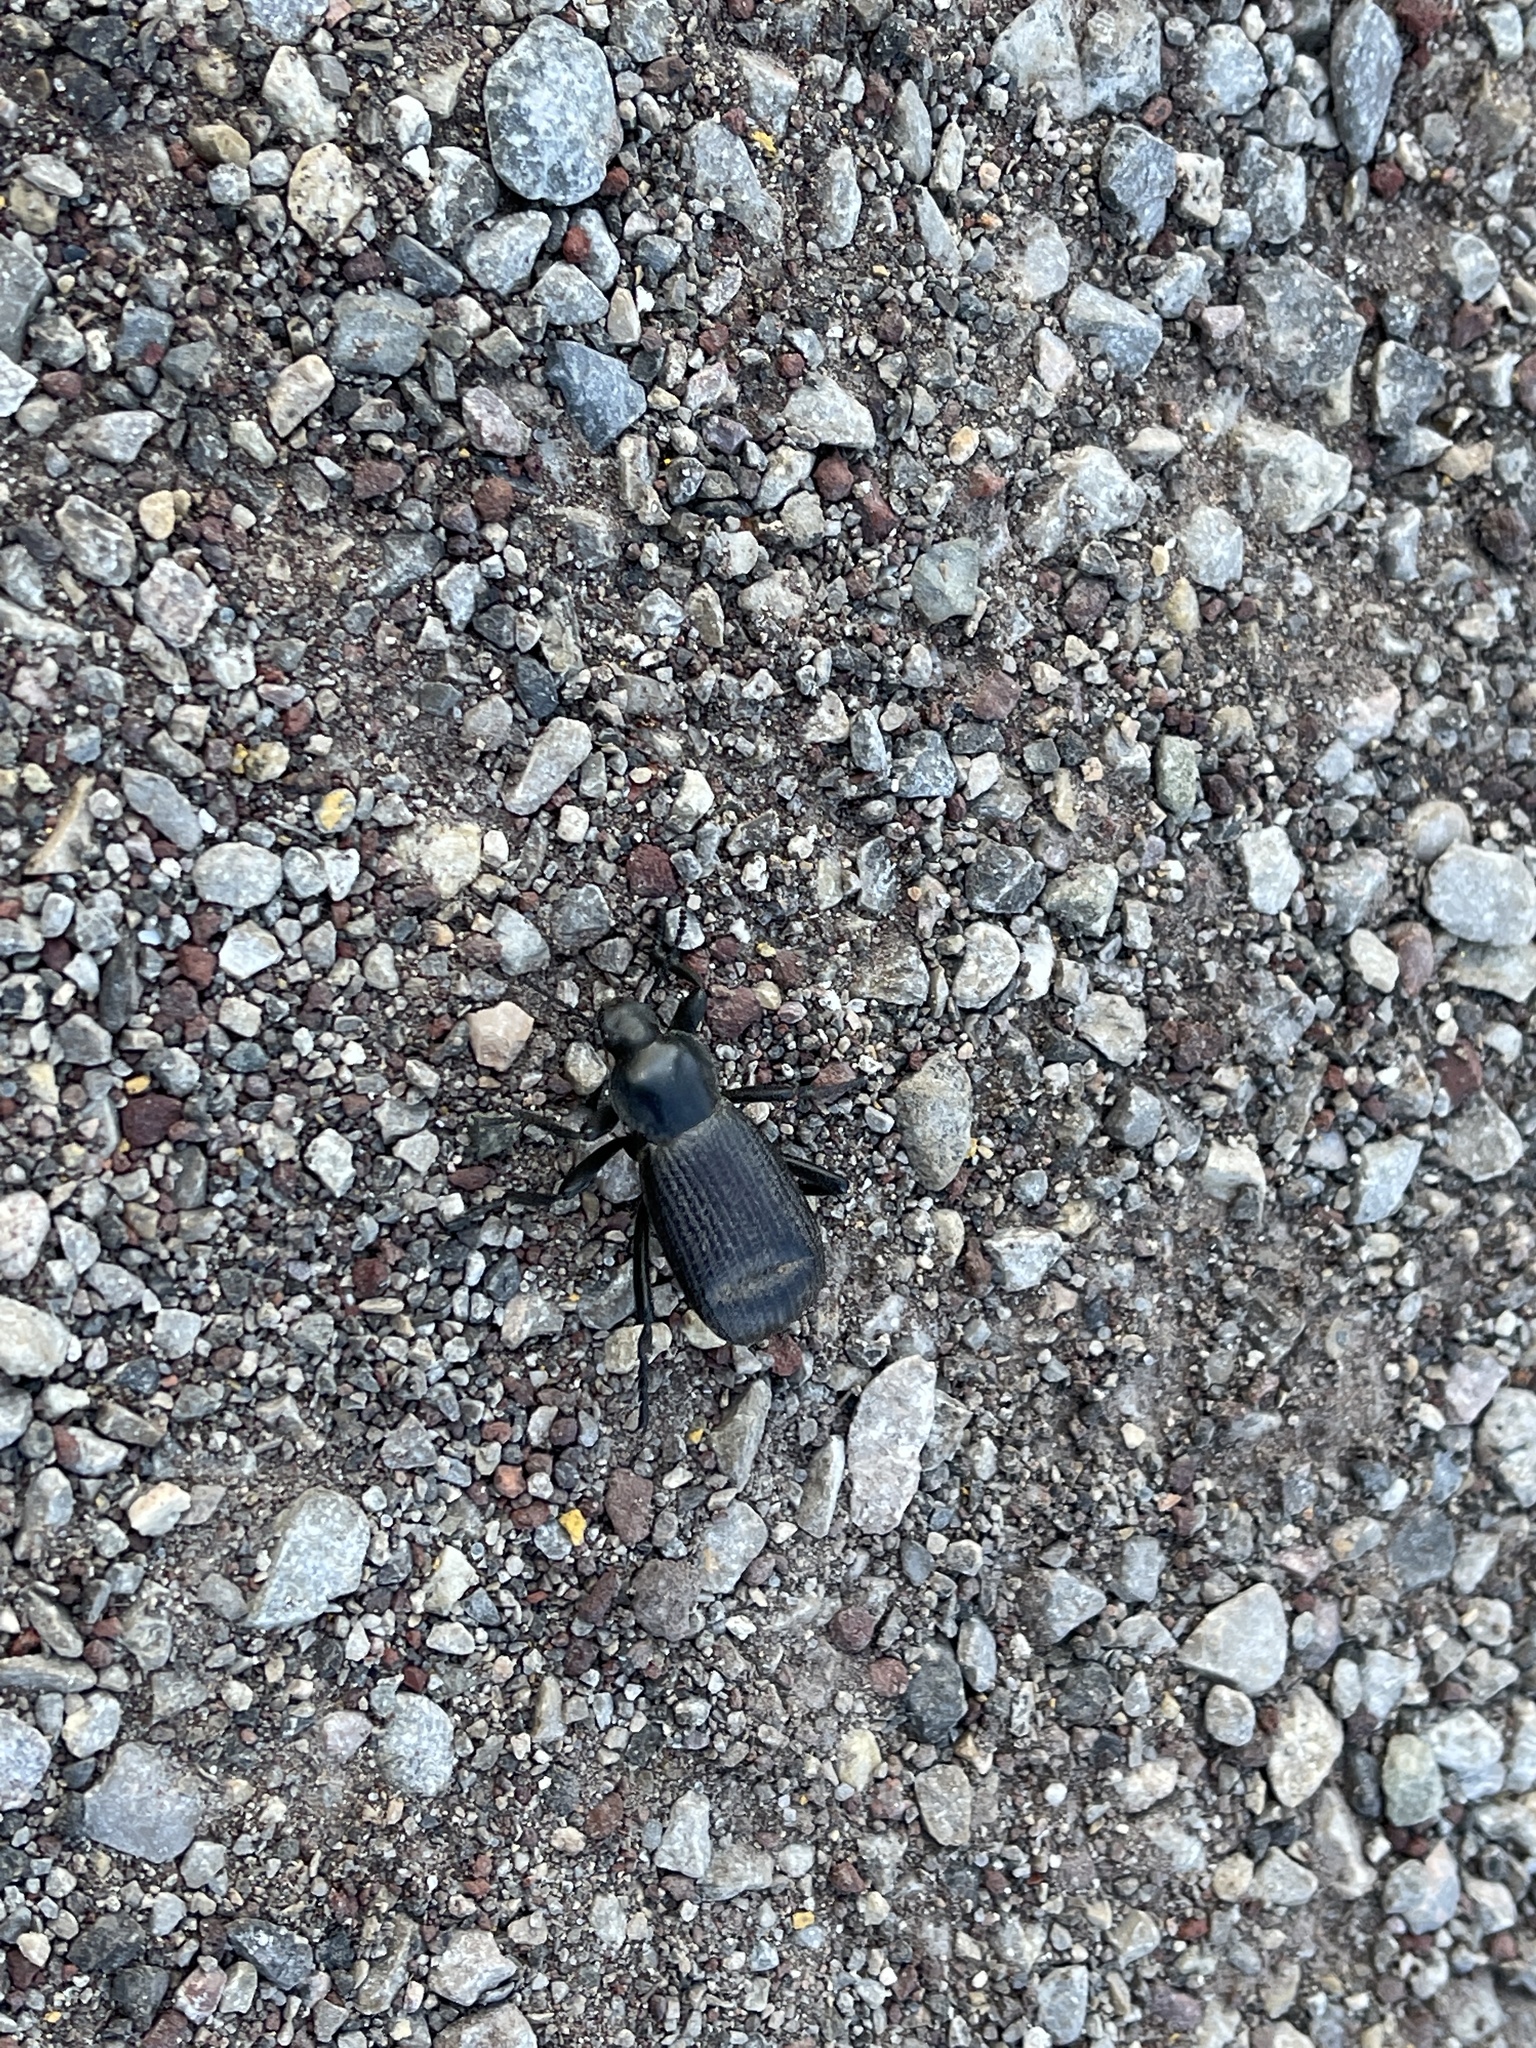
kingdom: Animalia
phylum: Arthropoda
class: Insecta
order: Coleoptera
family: Tenebrionidae
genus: Eleodes
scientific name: Eleodes obscura
